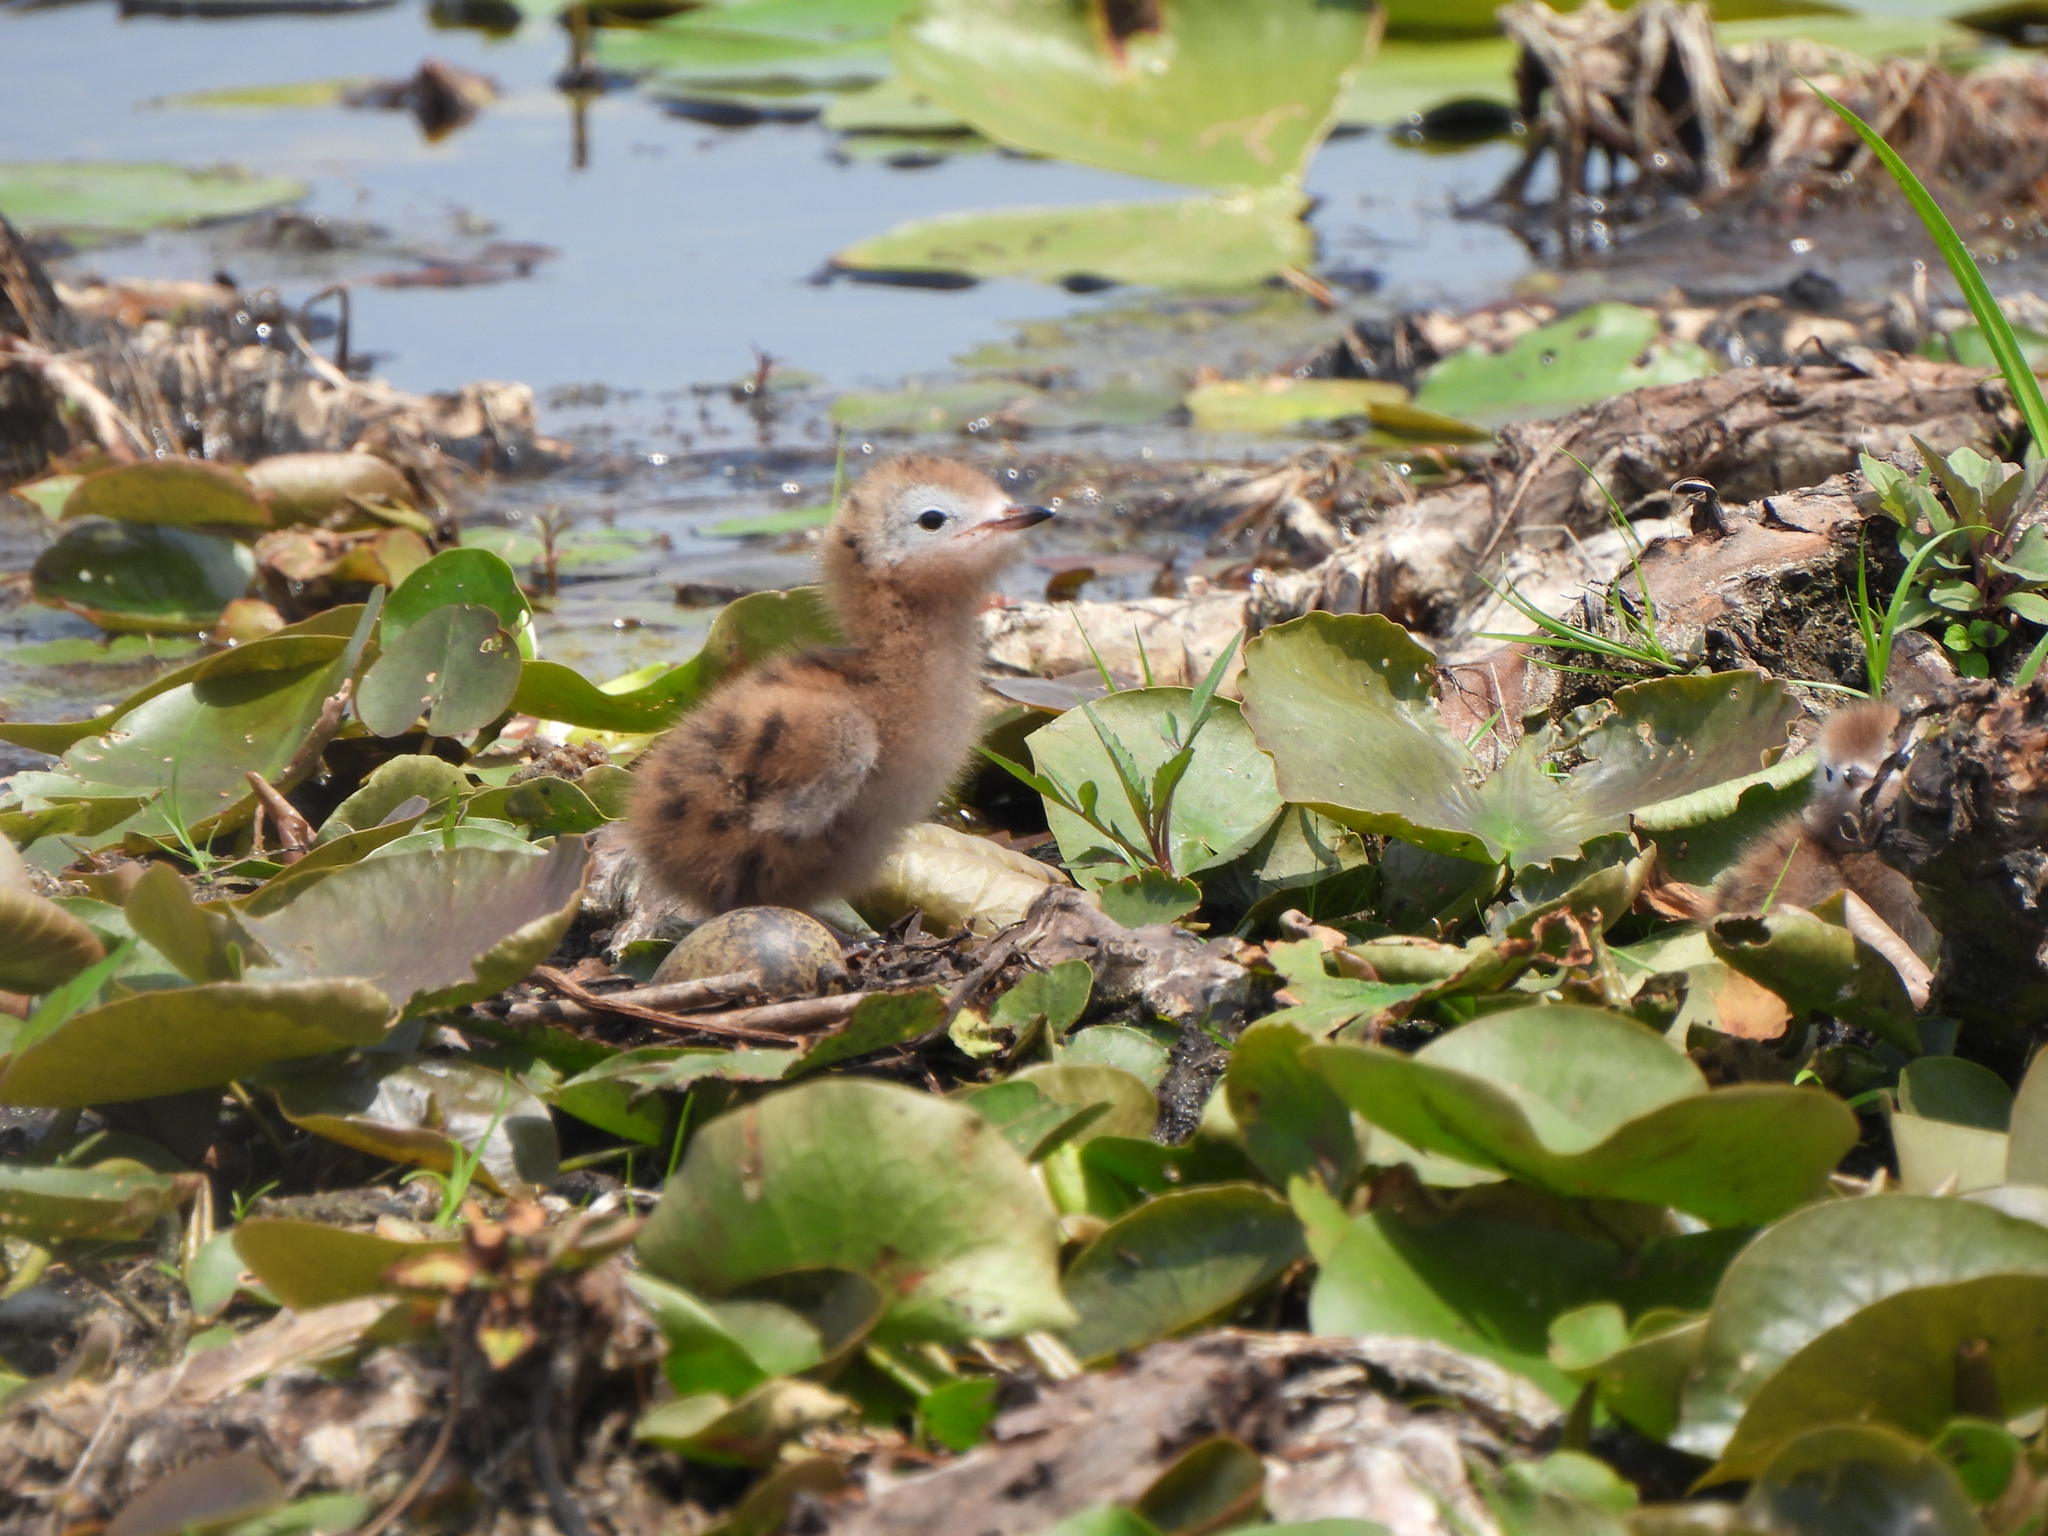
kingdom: Animalia
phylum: Chordata
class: Aves
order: Charadriiformes
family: Laridae
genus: Chlidonias
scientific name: Chlidonias niger
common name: Black tern
